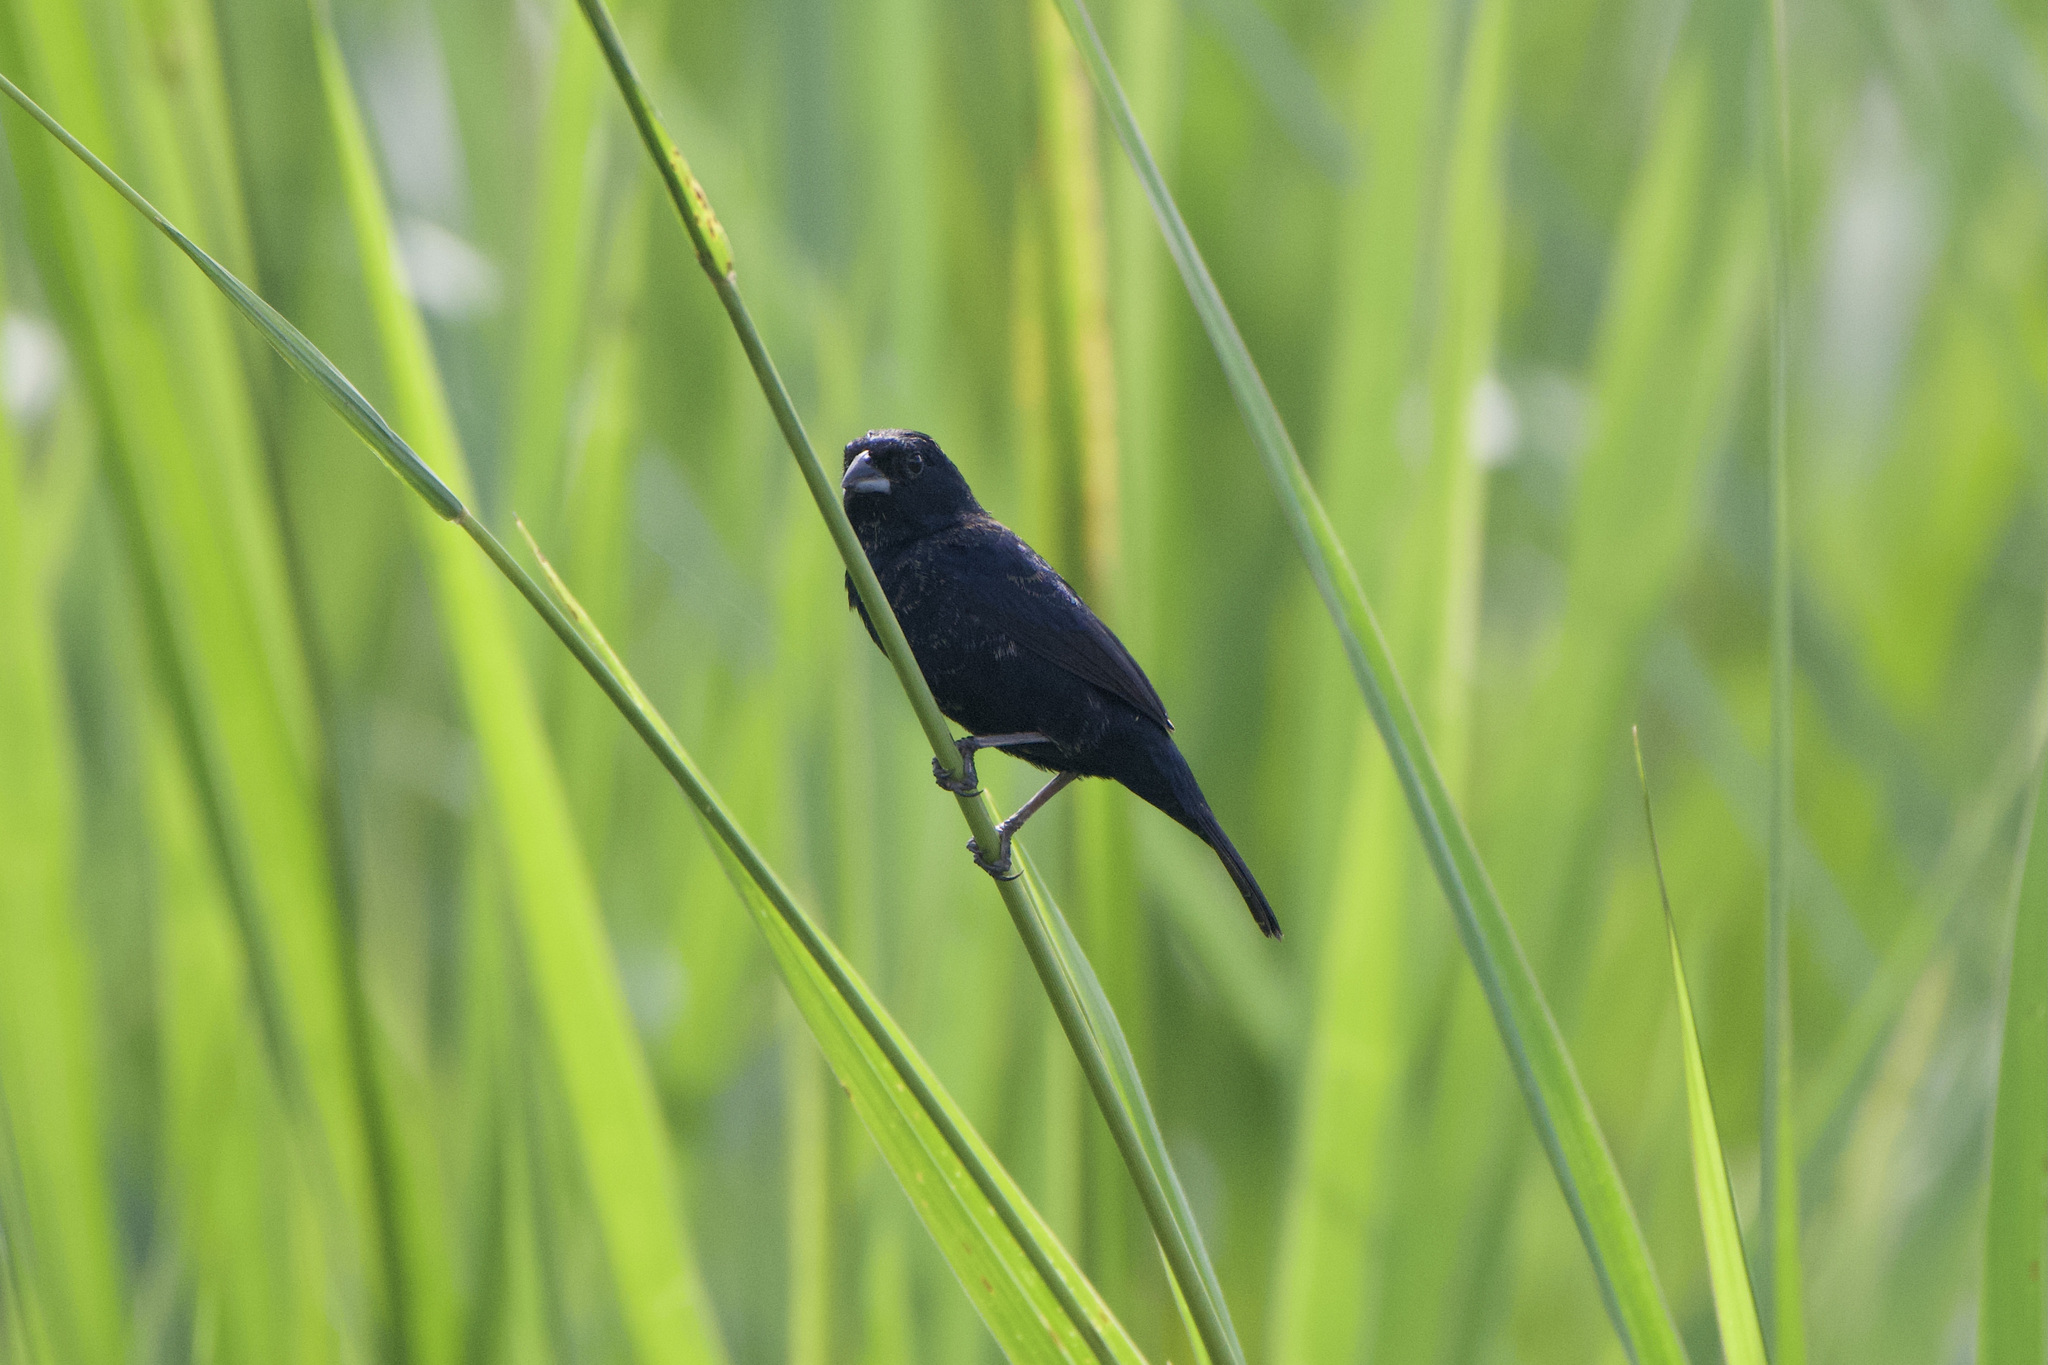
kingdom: Animalia
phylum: Chordata
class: Aves
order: Passeriformes
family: Thraupidae
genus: Volatinia
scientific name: Volatinia jacarina
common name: Blue-black grassquit
